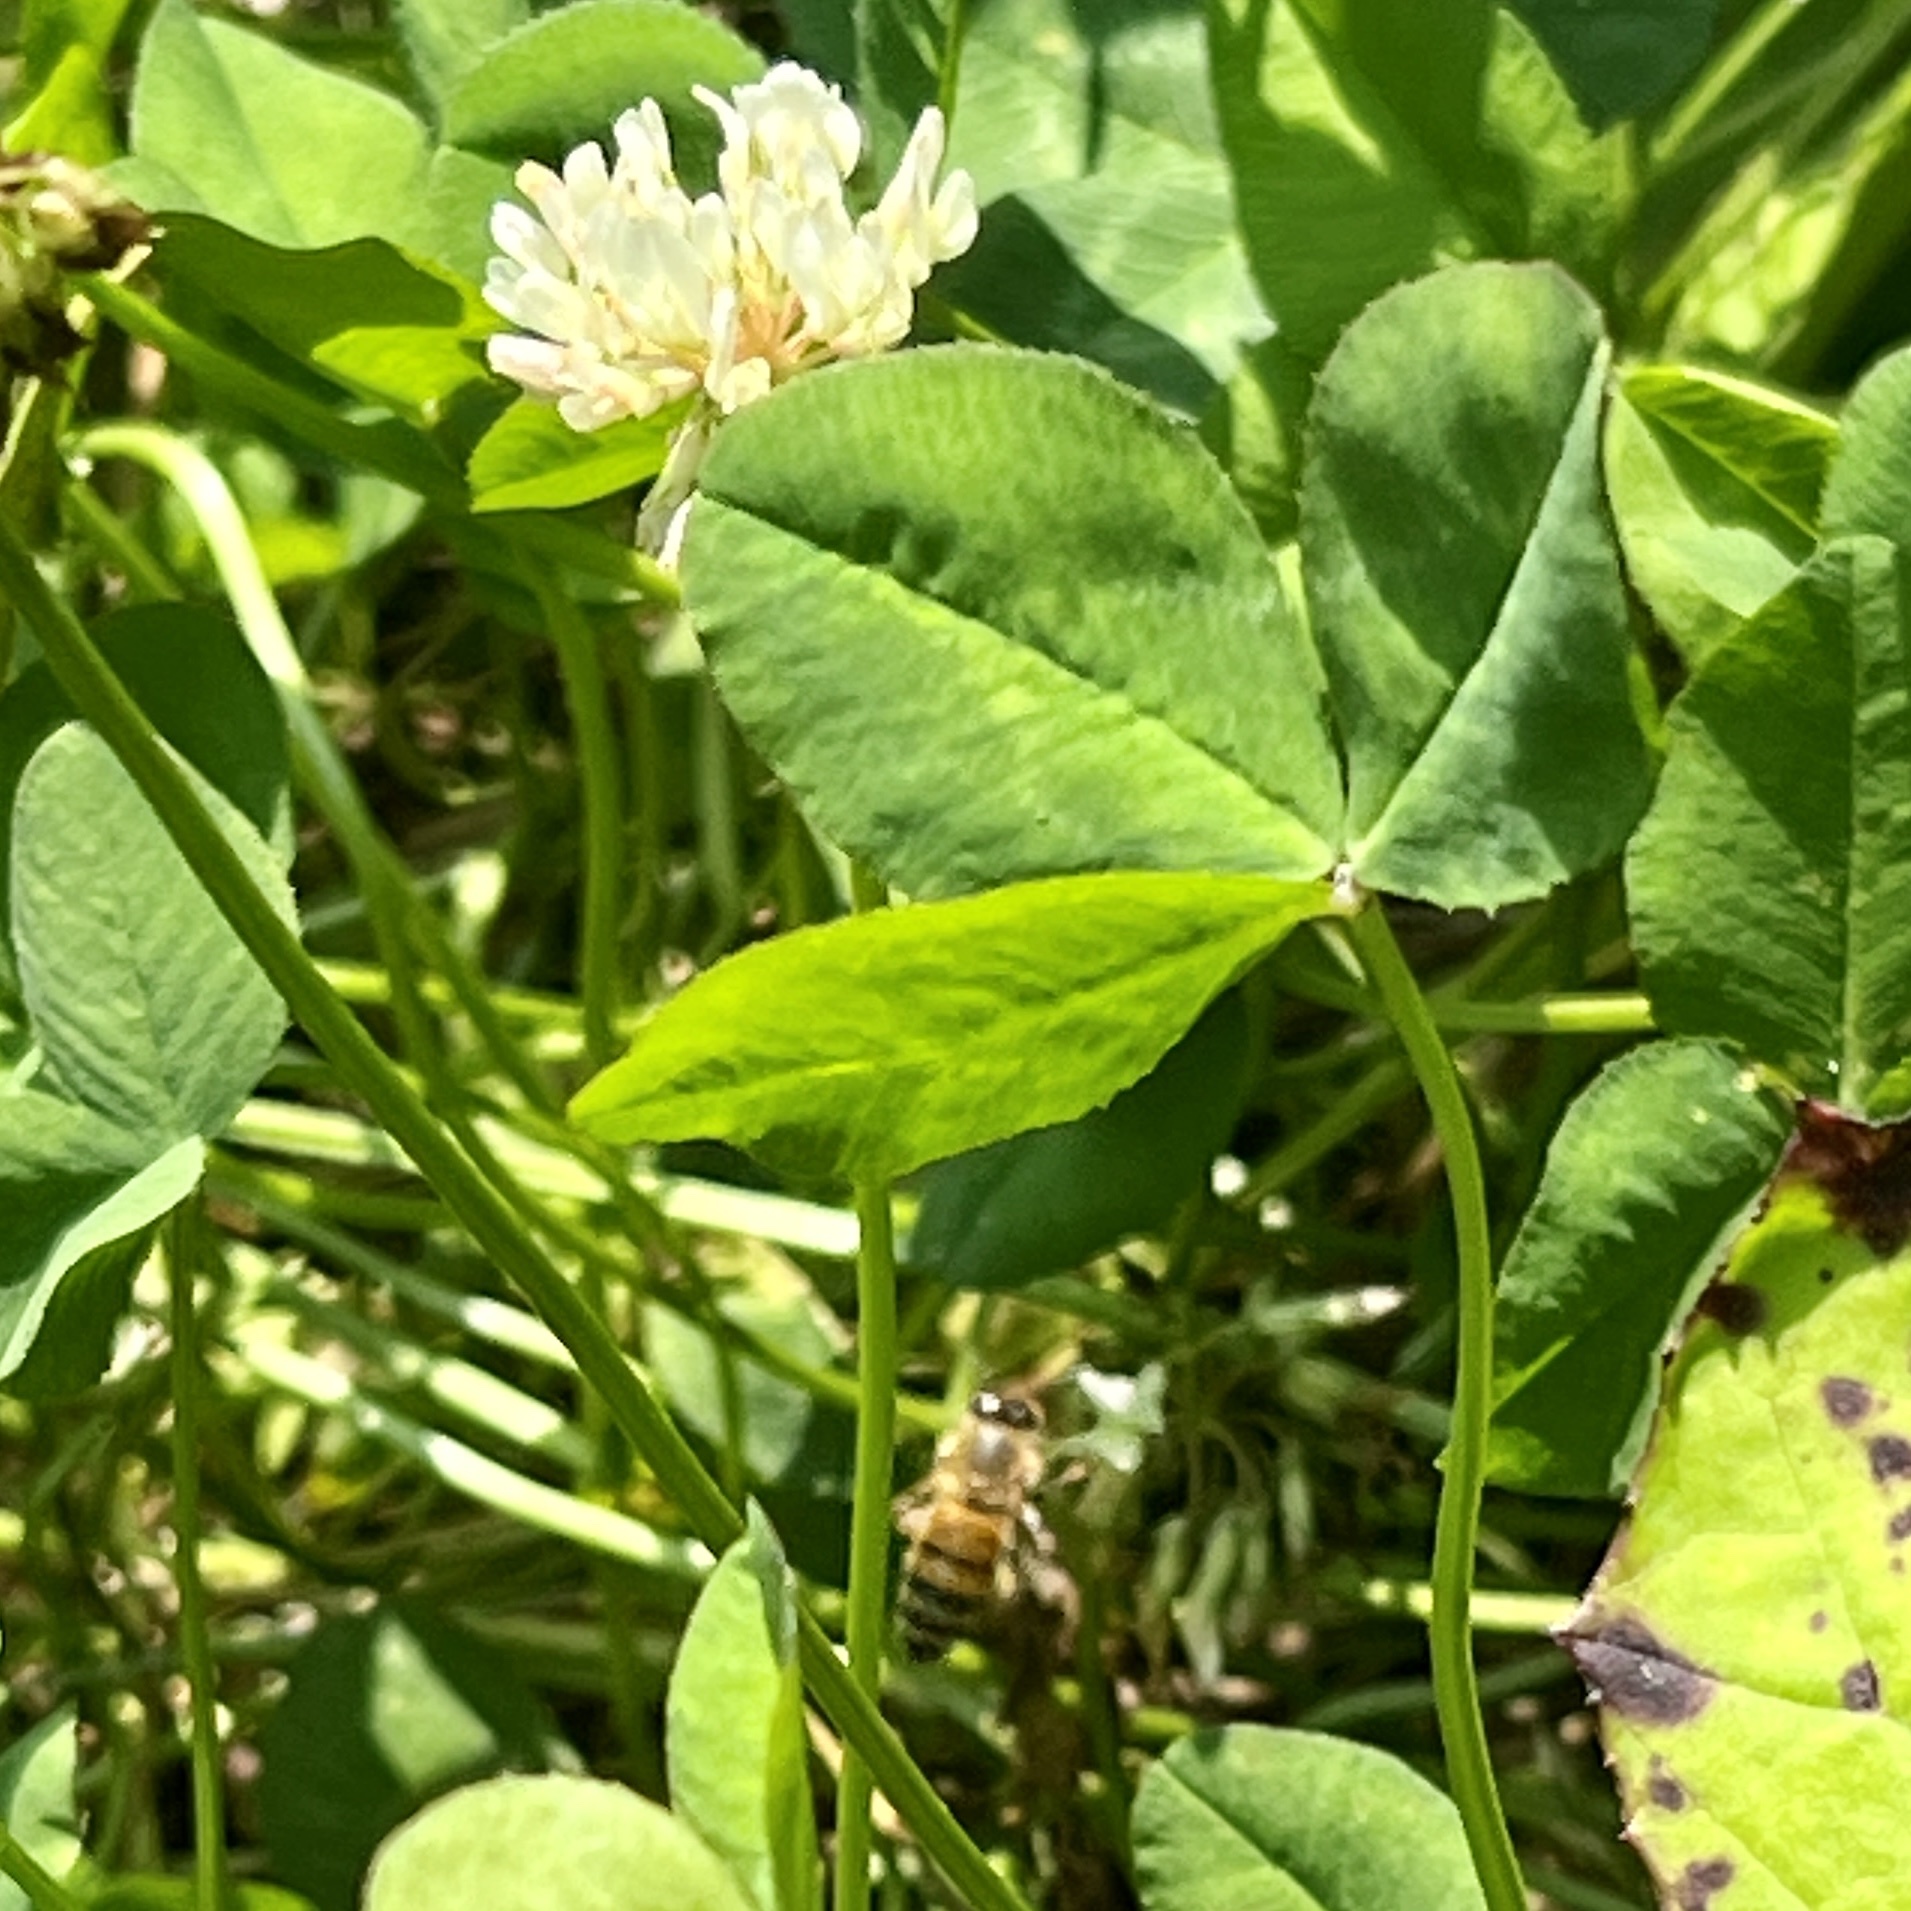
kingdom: Animalia
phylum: Arthropoda
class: Insecta
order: Hymenoptera
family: Apidae
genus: Apis
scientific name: Apis mellifera
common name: Honey bee
